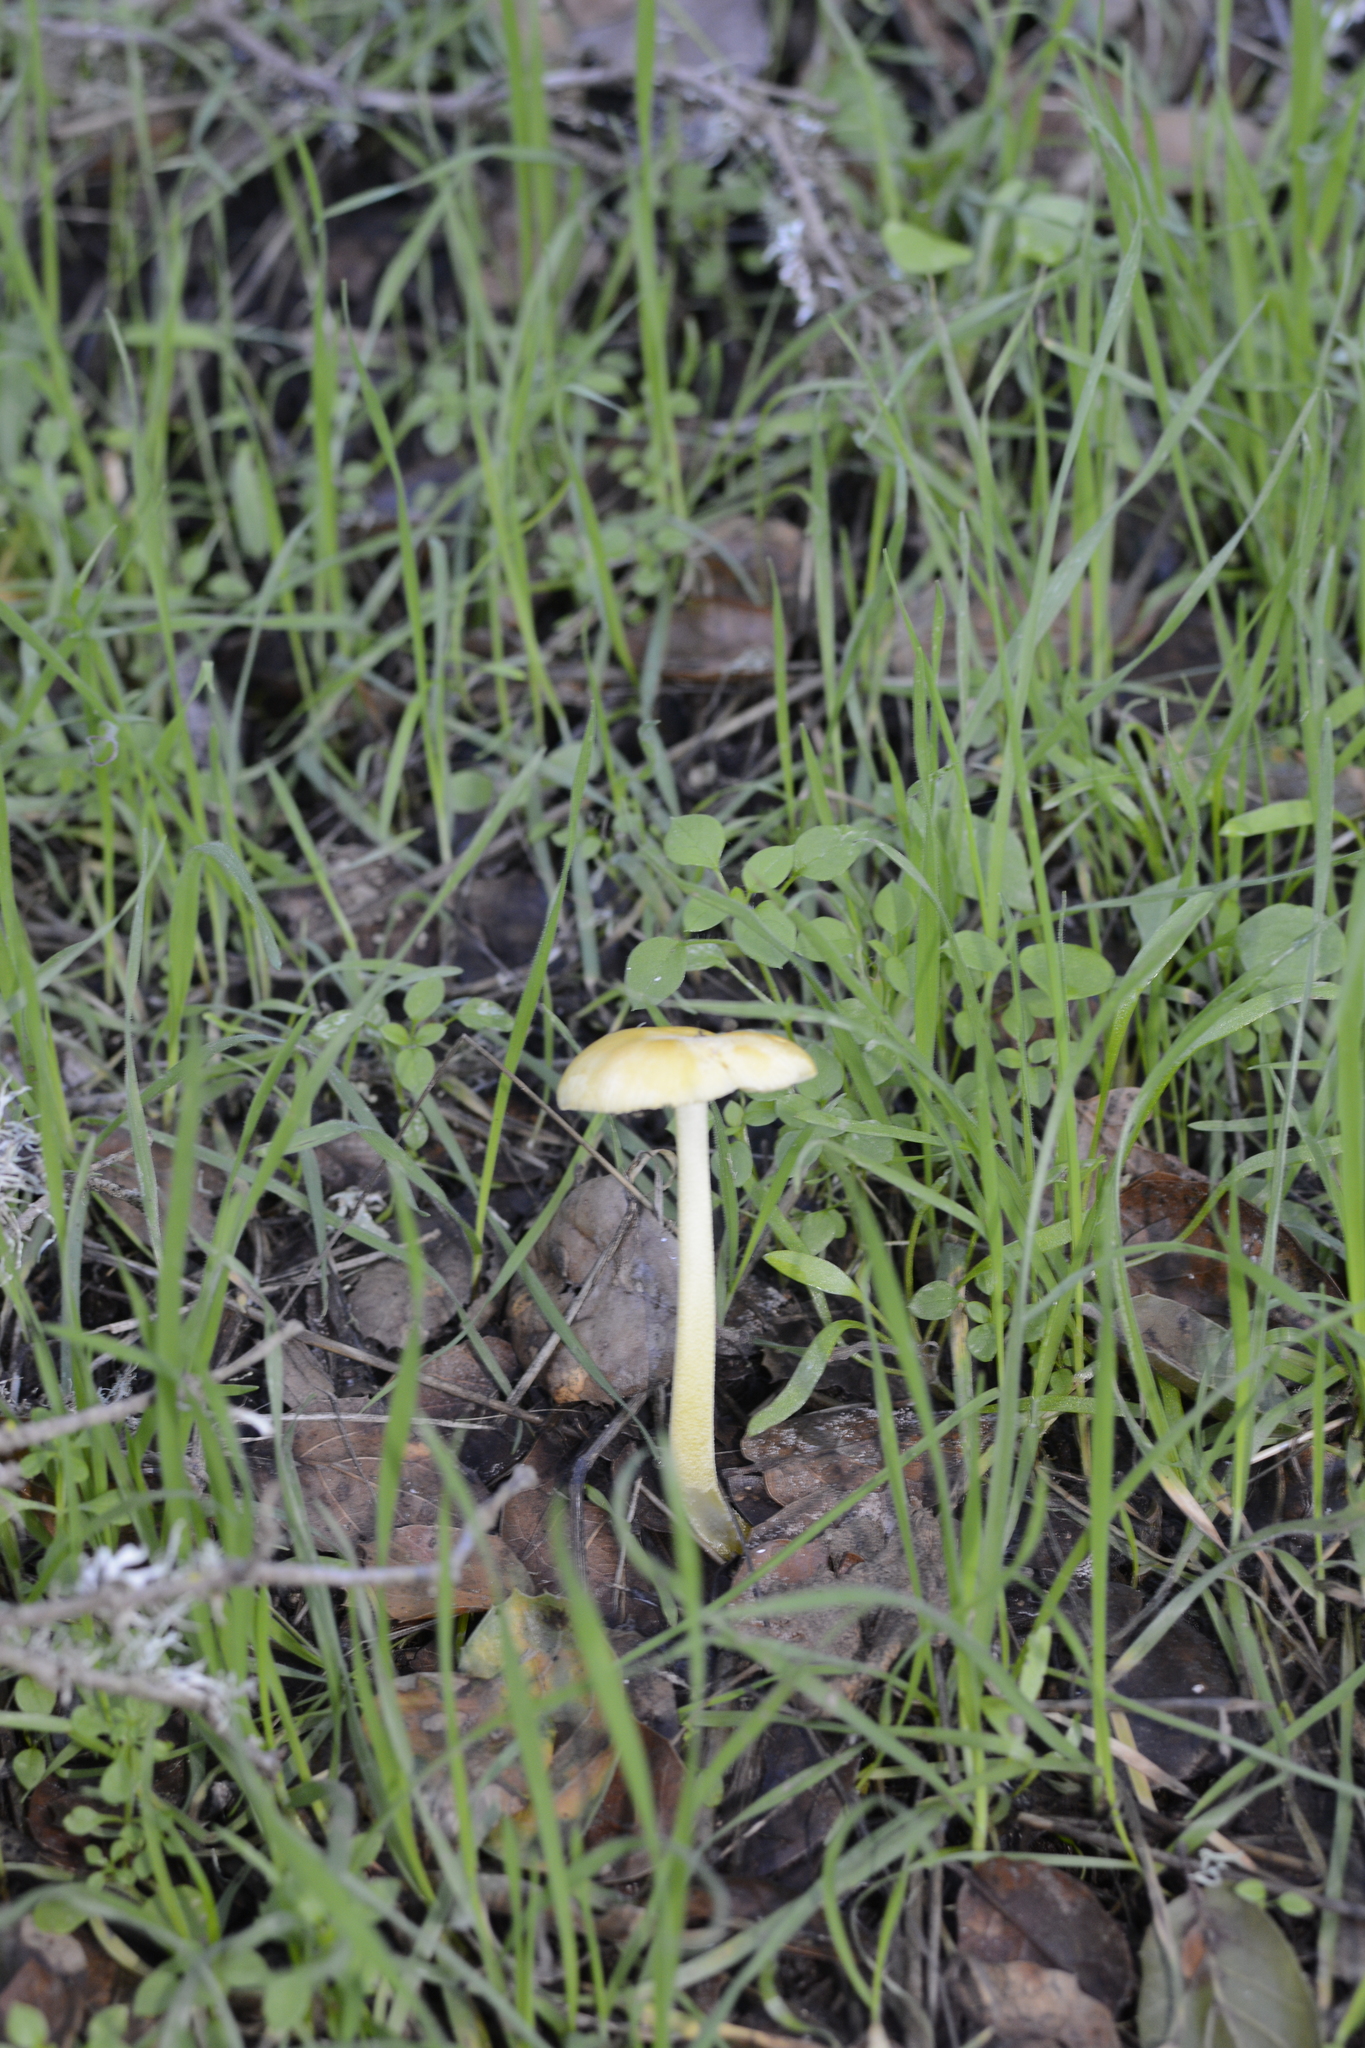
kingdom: Fungi
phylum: Basidiomycota
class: Agaricomycetes
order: Agaricales
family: Bolbitiaceae
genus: Bolbitius
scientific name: Bolbitius titubans
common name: Yellow fieldcap
